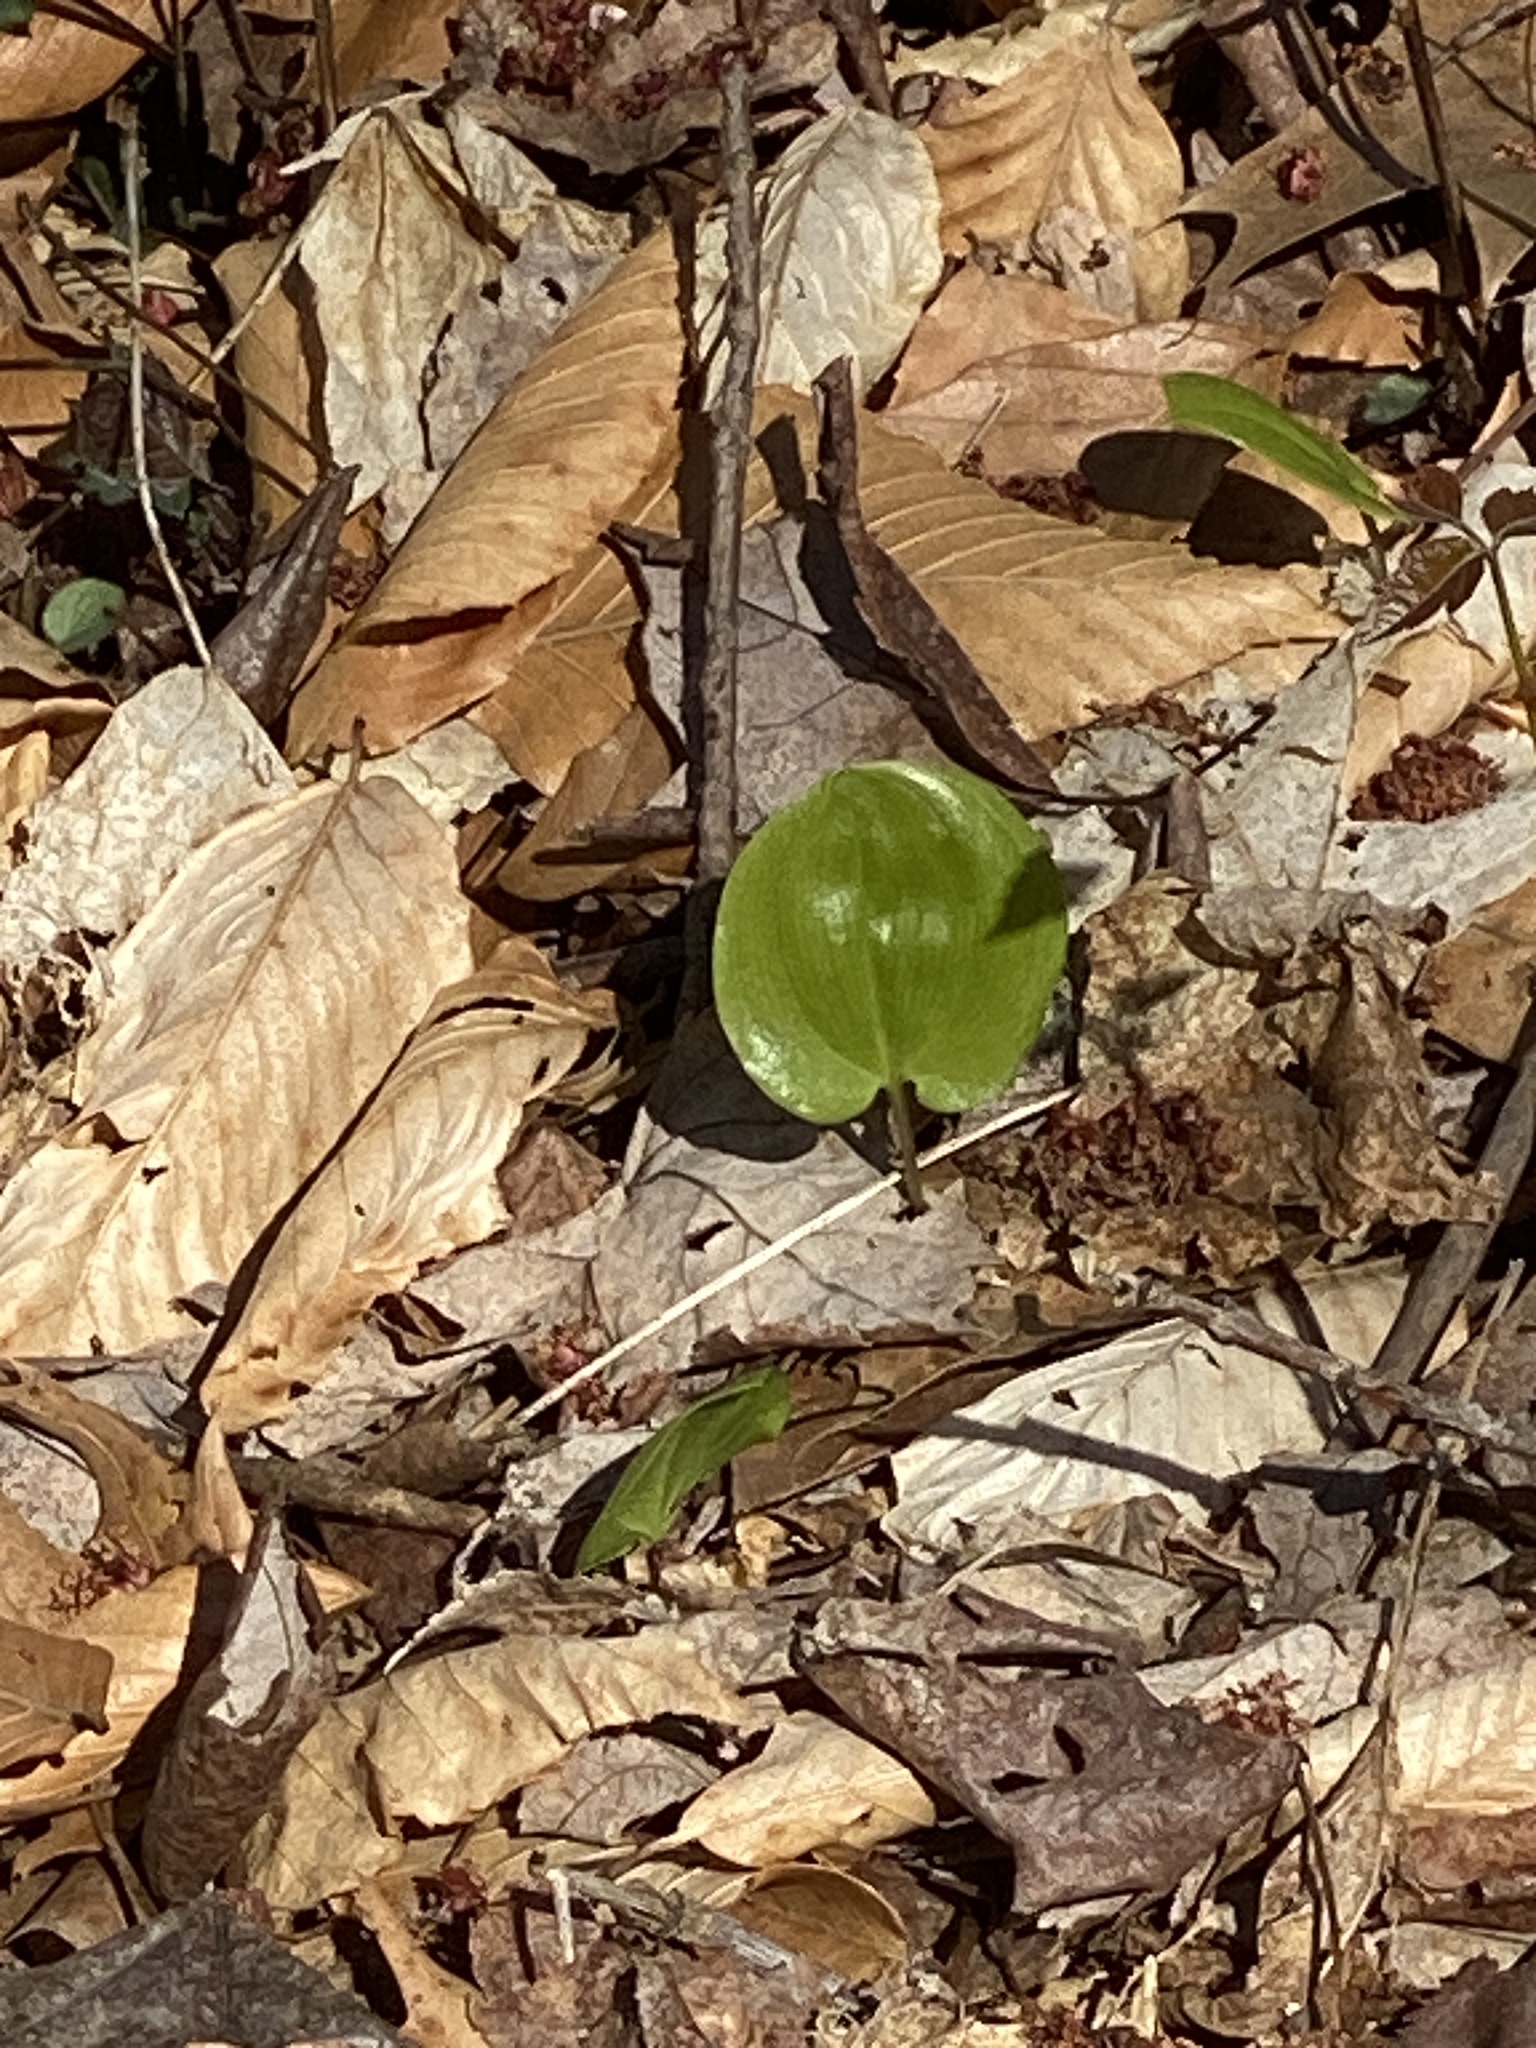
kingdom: Plantae
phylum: Tracheophyta
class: Liliopsida
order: Asparagales
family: Asparagaceae
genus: Maianthemum
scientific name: Maianthemum canadense
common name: False lily-of-the-valley
